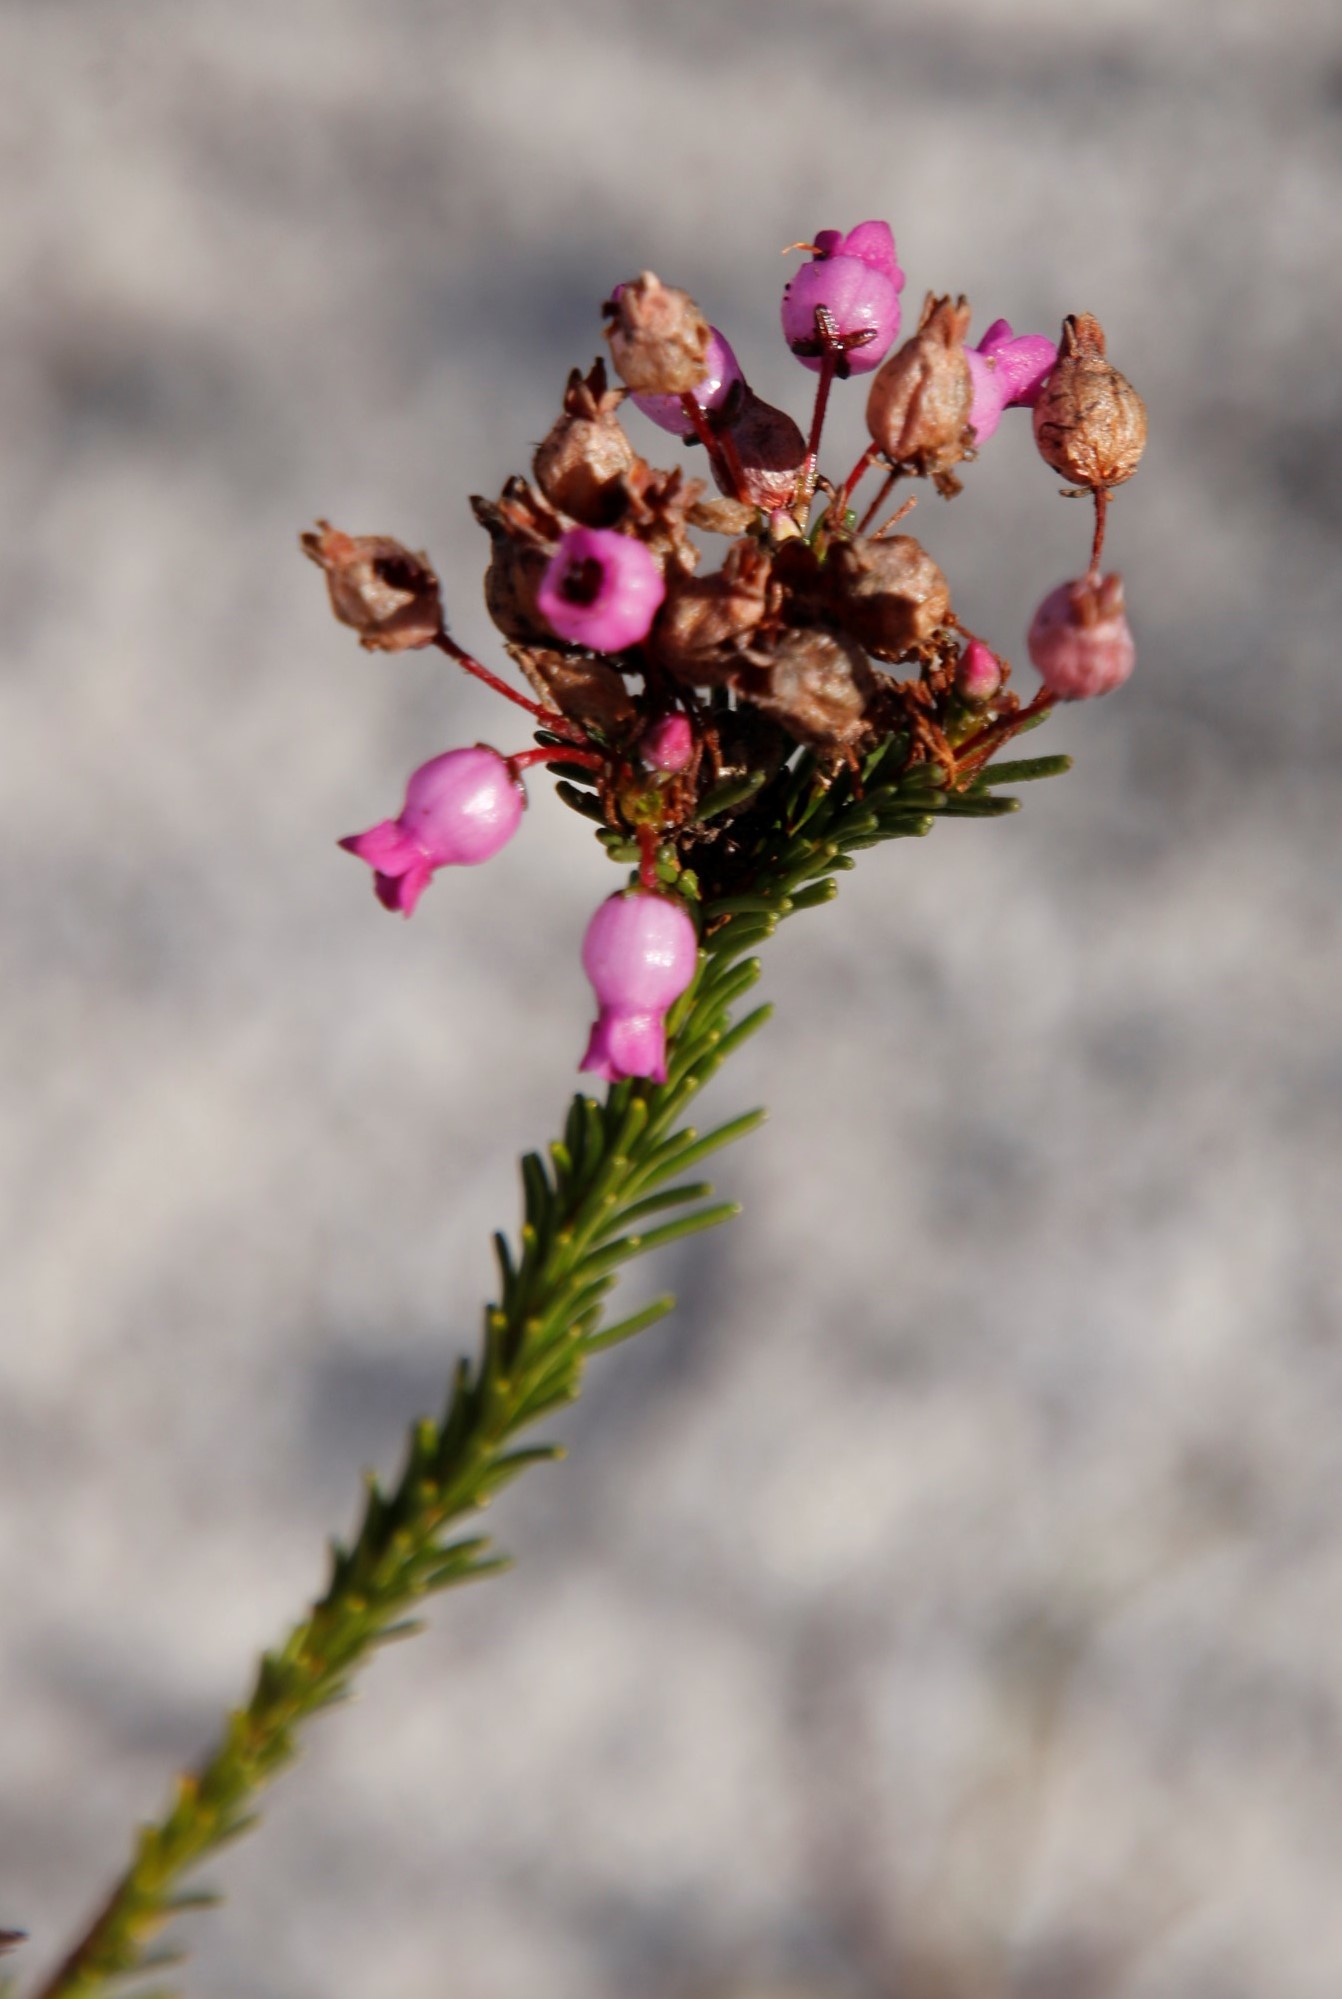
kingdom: Plantae
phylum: Tracheophyta
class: Magnoliopsida
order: Ericales
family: Ericaceae
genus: Erica
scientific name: Erica obliqua
